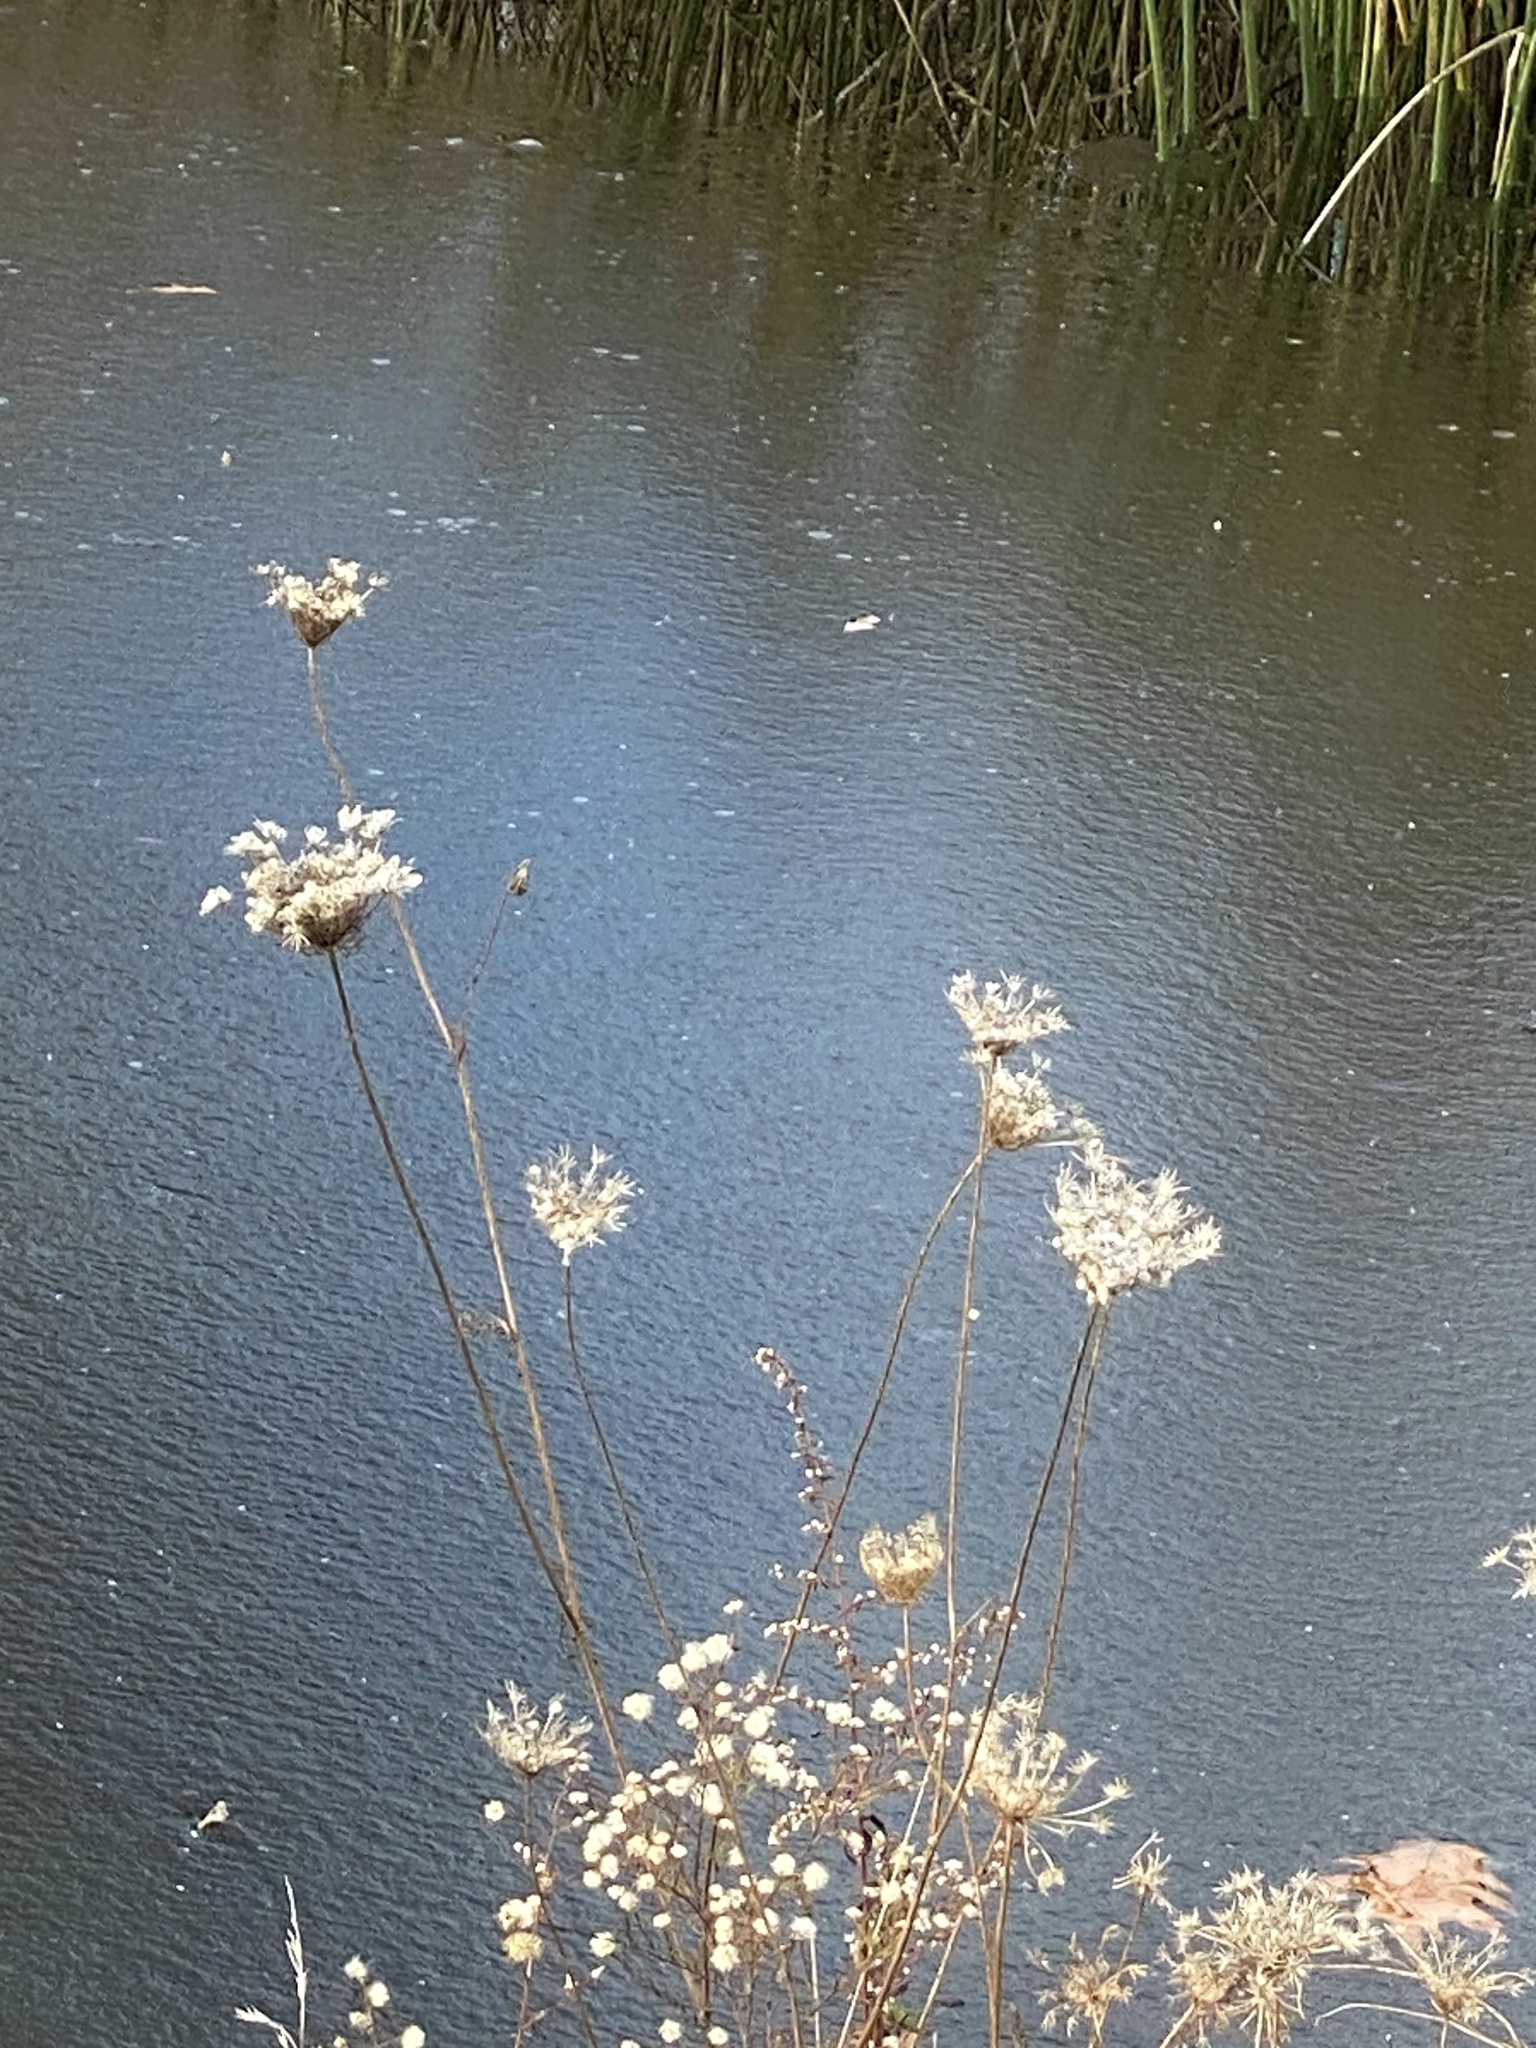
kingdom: Plantae
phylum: Tracheophyta
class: Magnoliopsida
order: Apiales
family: Apiaceae
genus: Daucus
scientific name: Daucus carota
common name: Wild carrot
